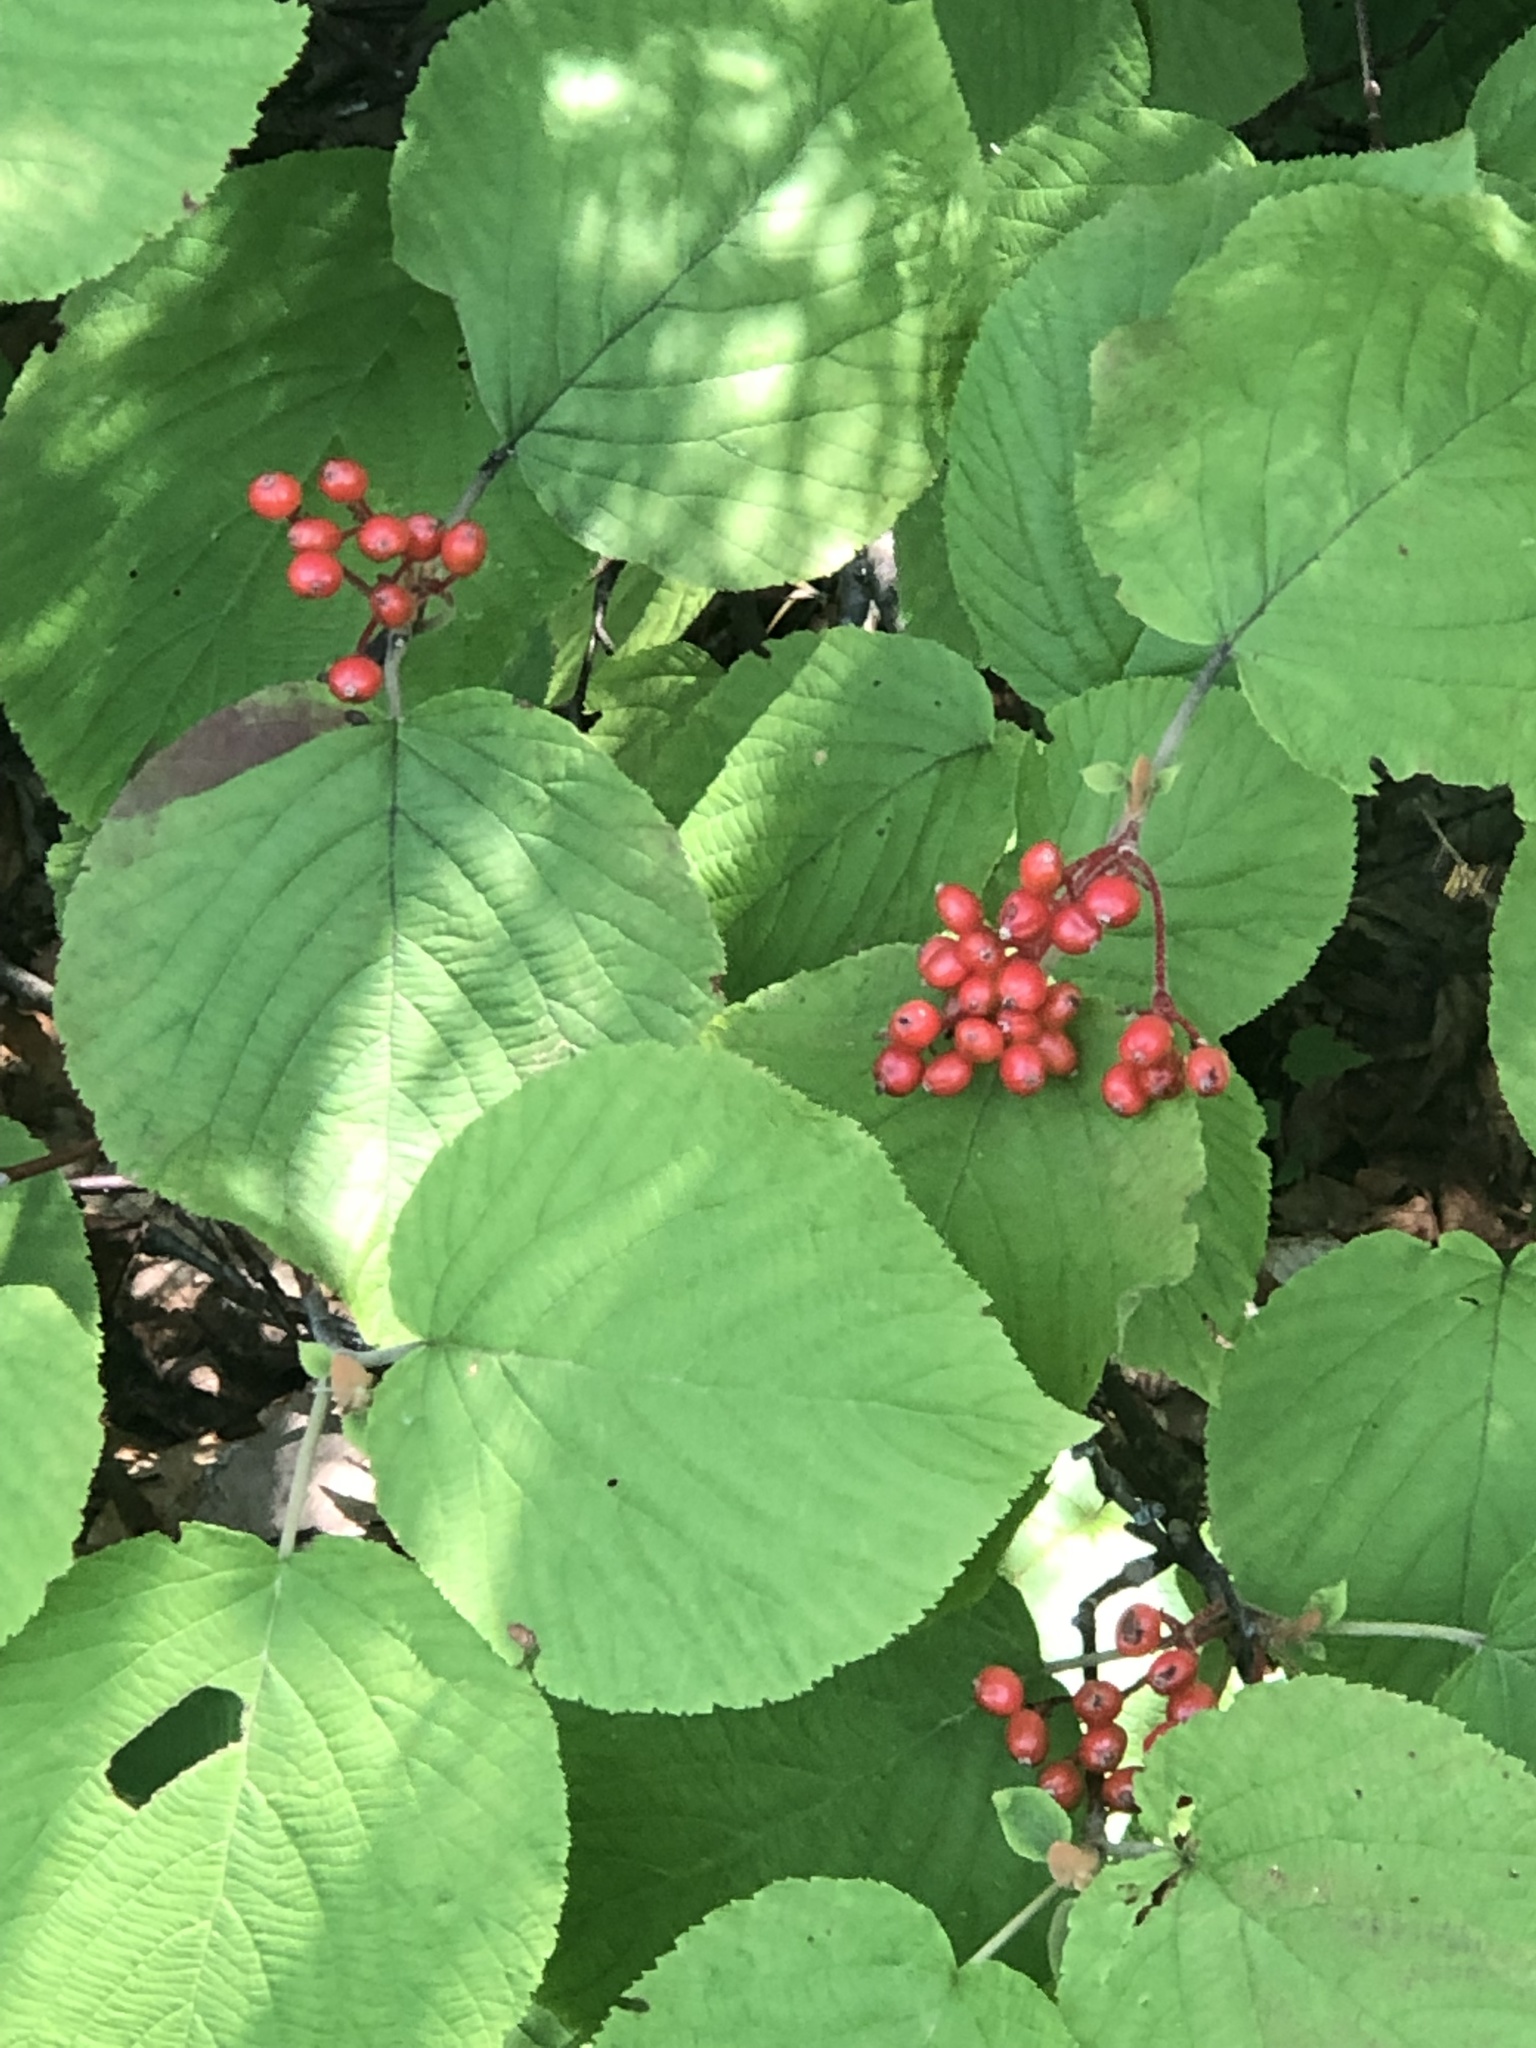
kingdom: Plantae
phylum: Tracheophyta
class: Magnoliopsida
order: Dipsacales
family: Viburnaceae
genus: Viburnum
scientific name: Viburnum lantanoides
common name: Hobblebush
